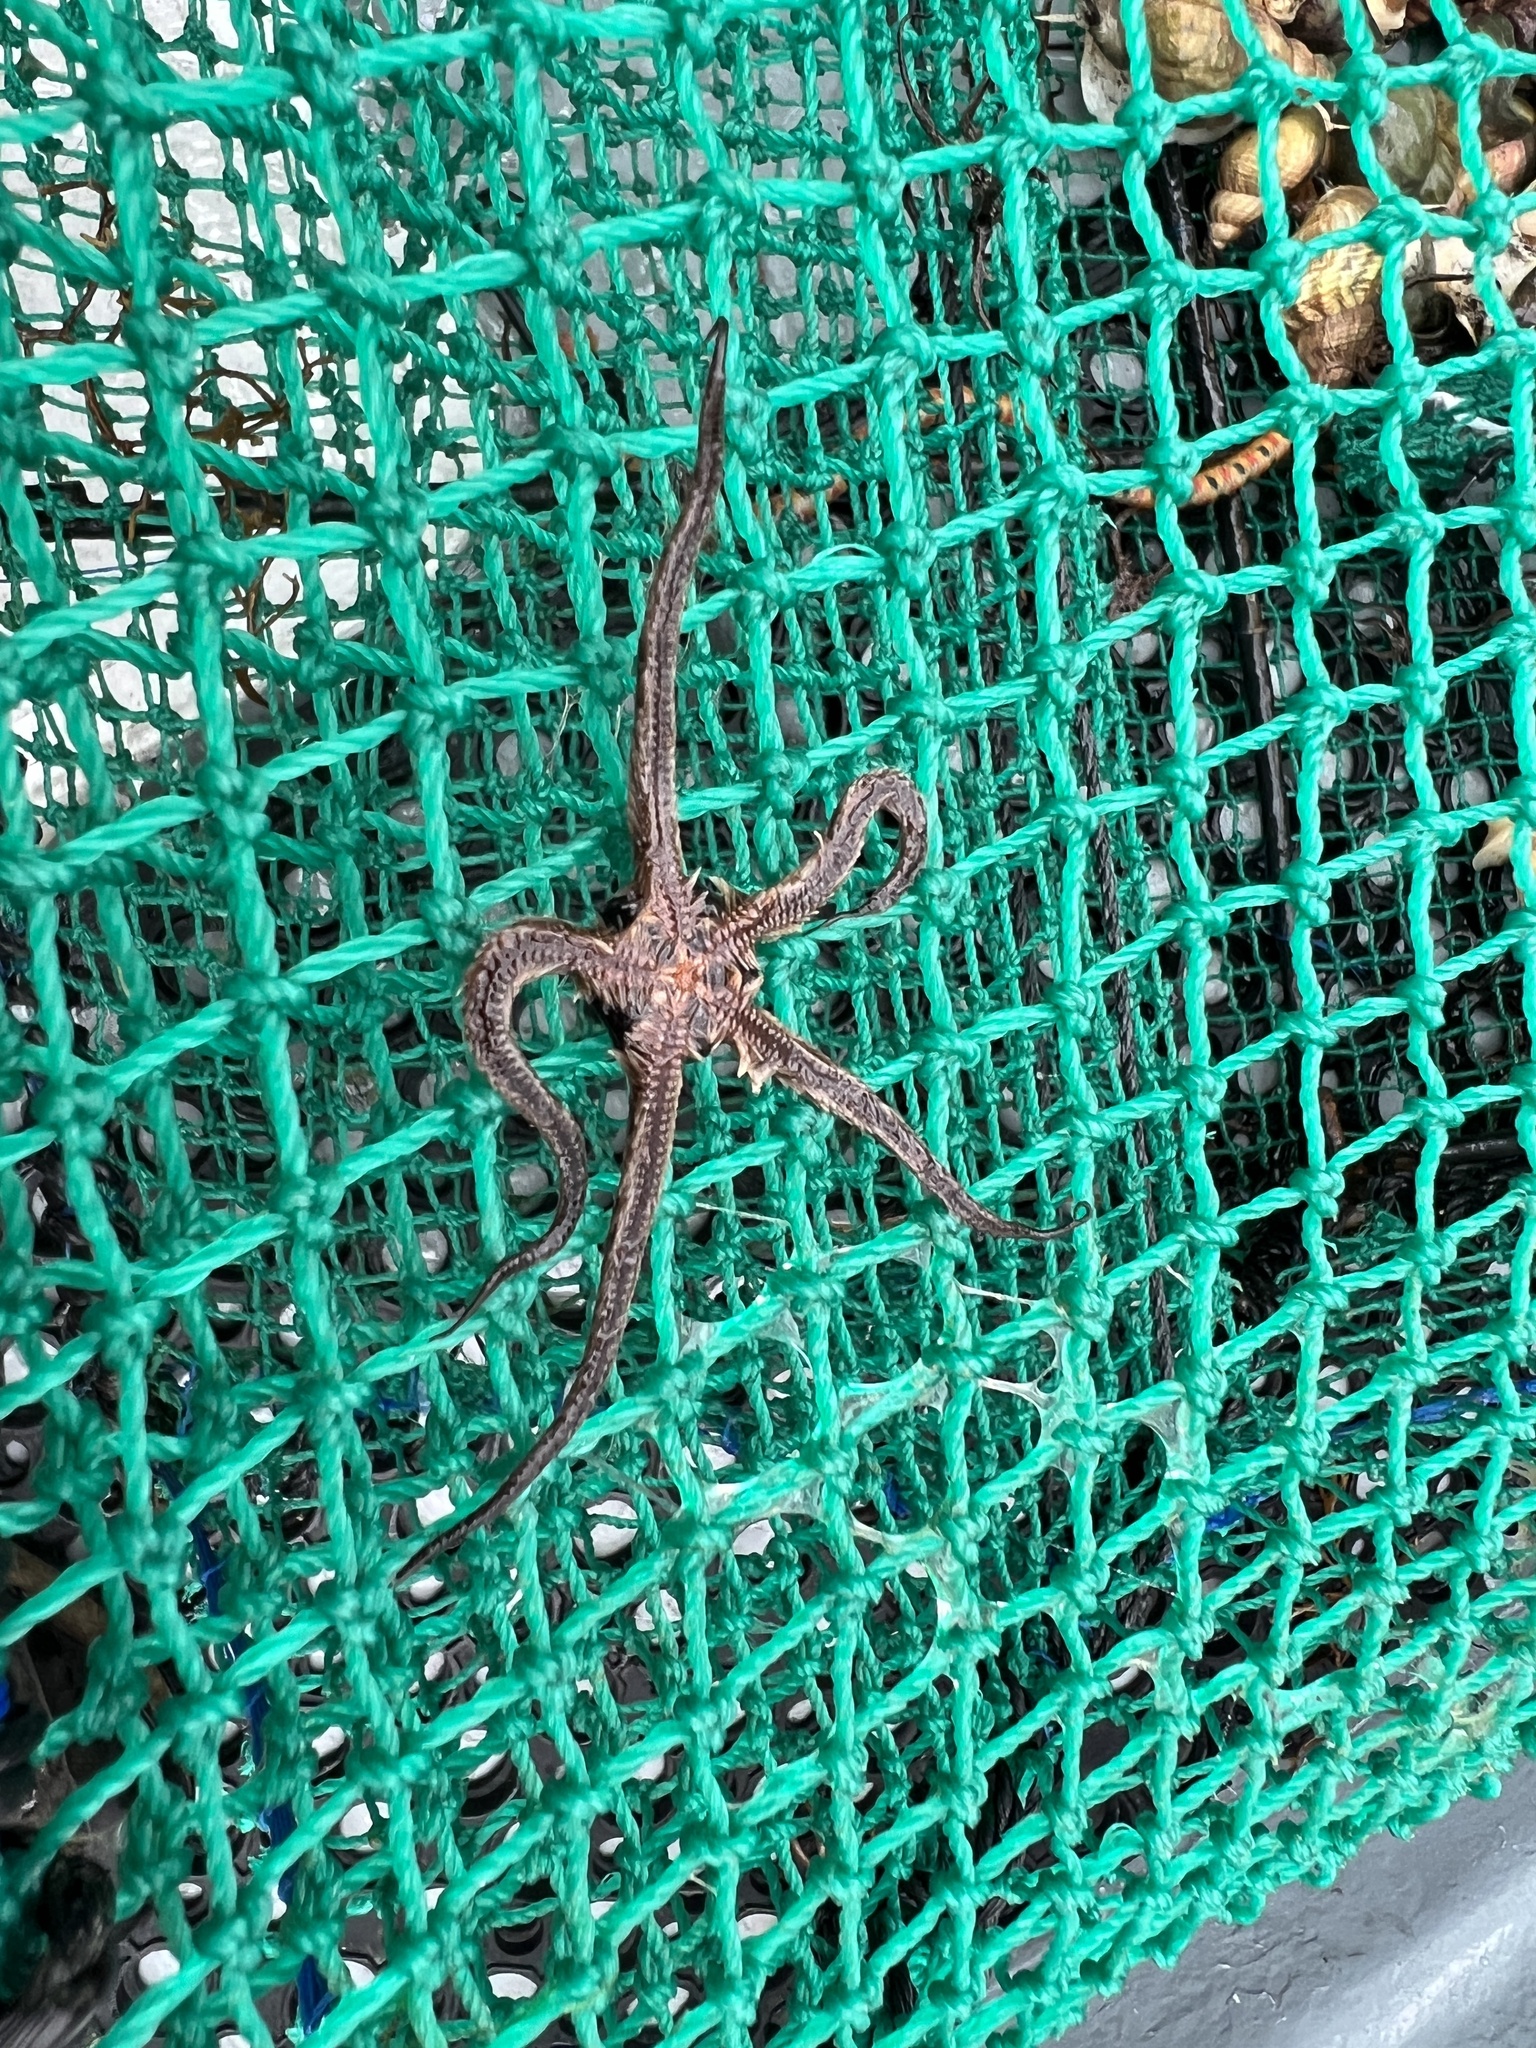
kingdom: Animalia
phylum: Echinodermata
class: Ophiuroidea
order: Amphilepidida
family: Ophiotrichidae
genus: Ophiothrix
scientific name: Ophiothrix fragilis
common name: Common brittlestar
